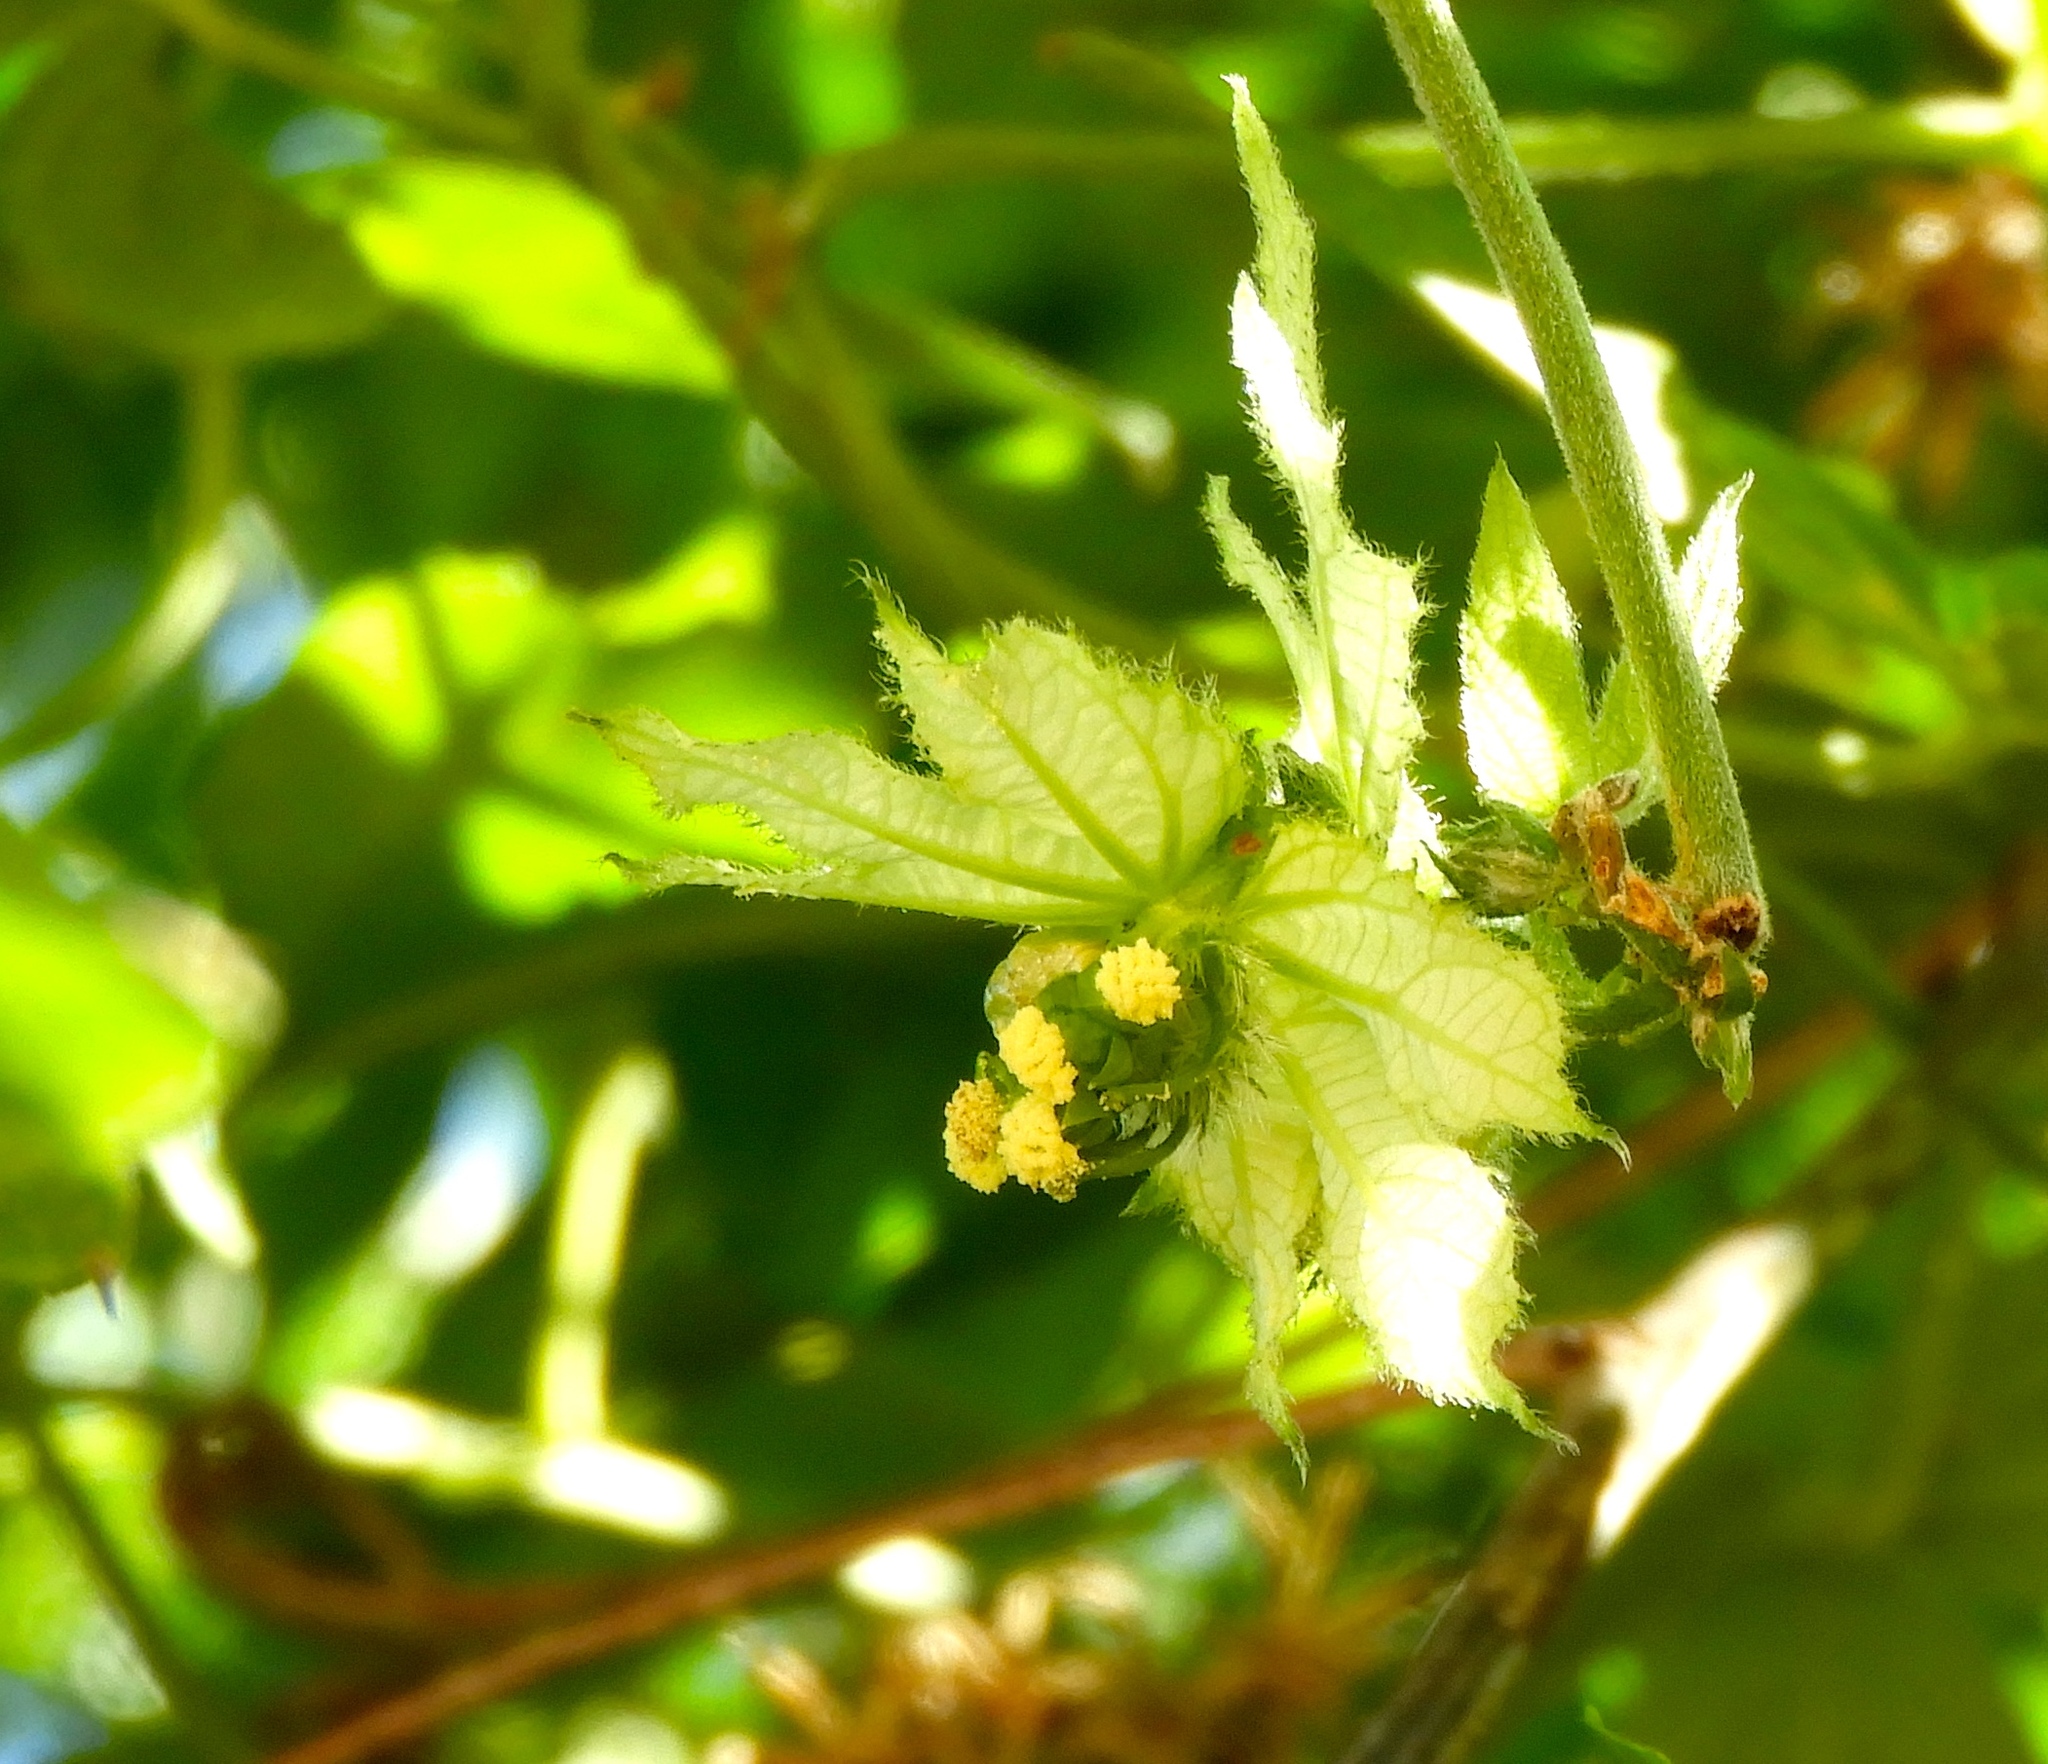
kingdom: Plantae
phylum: Tracheophyta
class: Magnoliopsida
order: Malpighiales
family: Euphorbiaceae
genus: Dalechampia
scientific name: Dalechampia scandens
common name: Spurgecreeper
